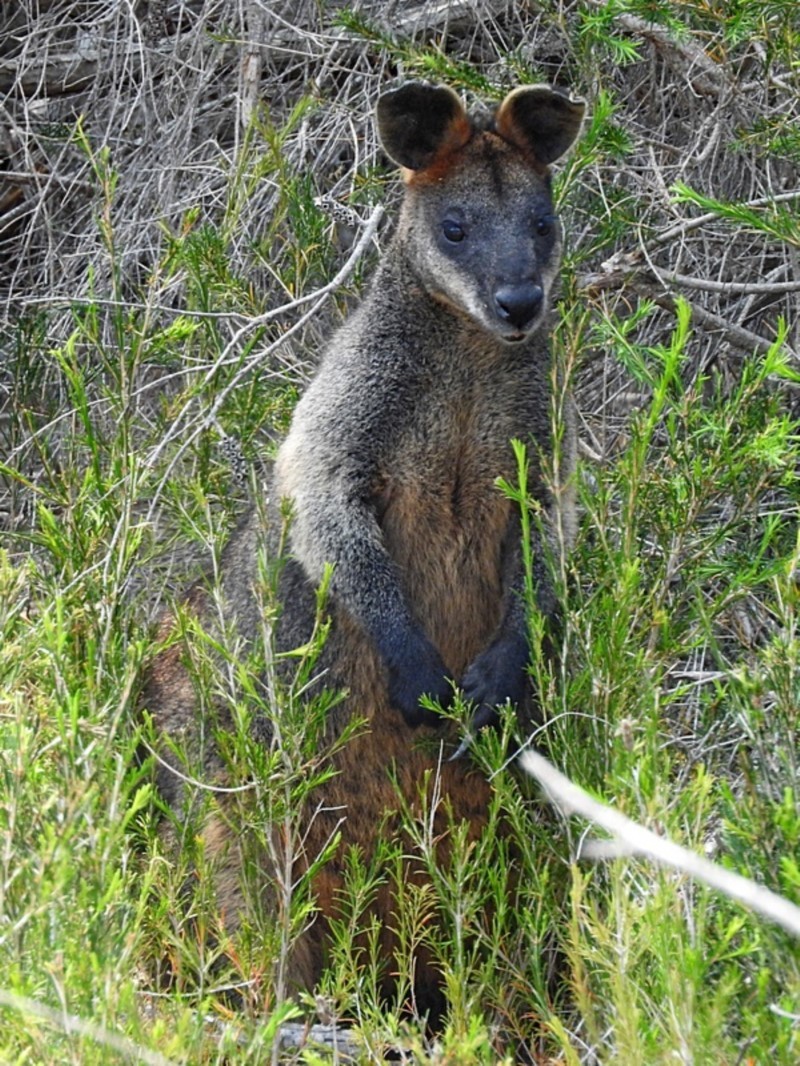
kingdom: Animalia
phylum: Chordata
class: Mammalia
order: Diprotodontia
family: Macropodidae
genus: Wallabia
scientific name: Wallabia bicolor
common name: Swamp wallaby
